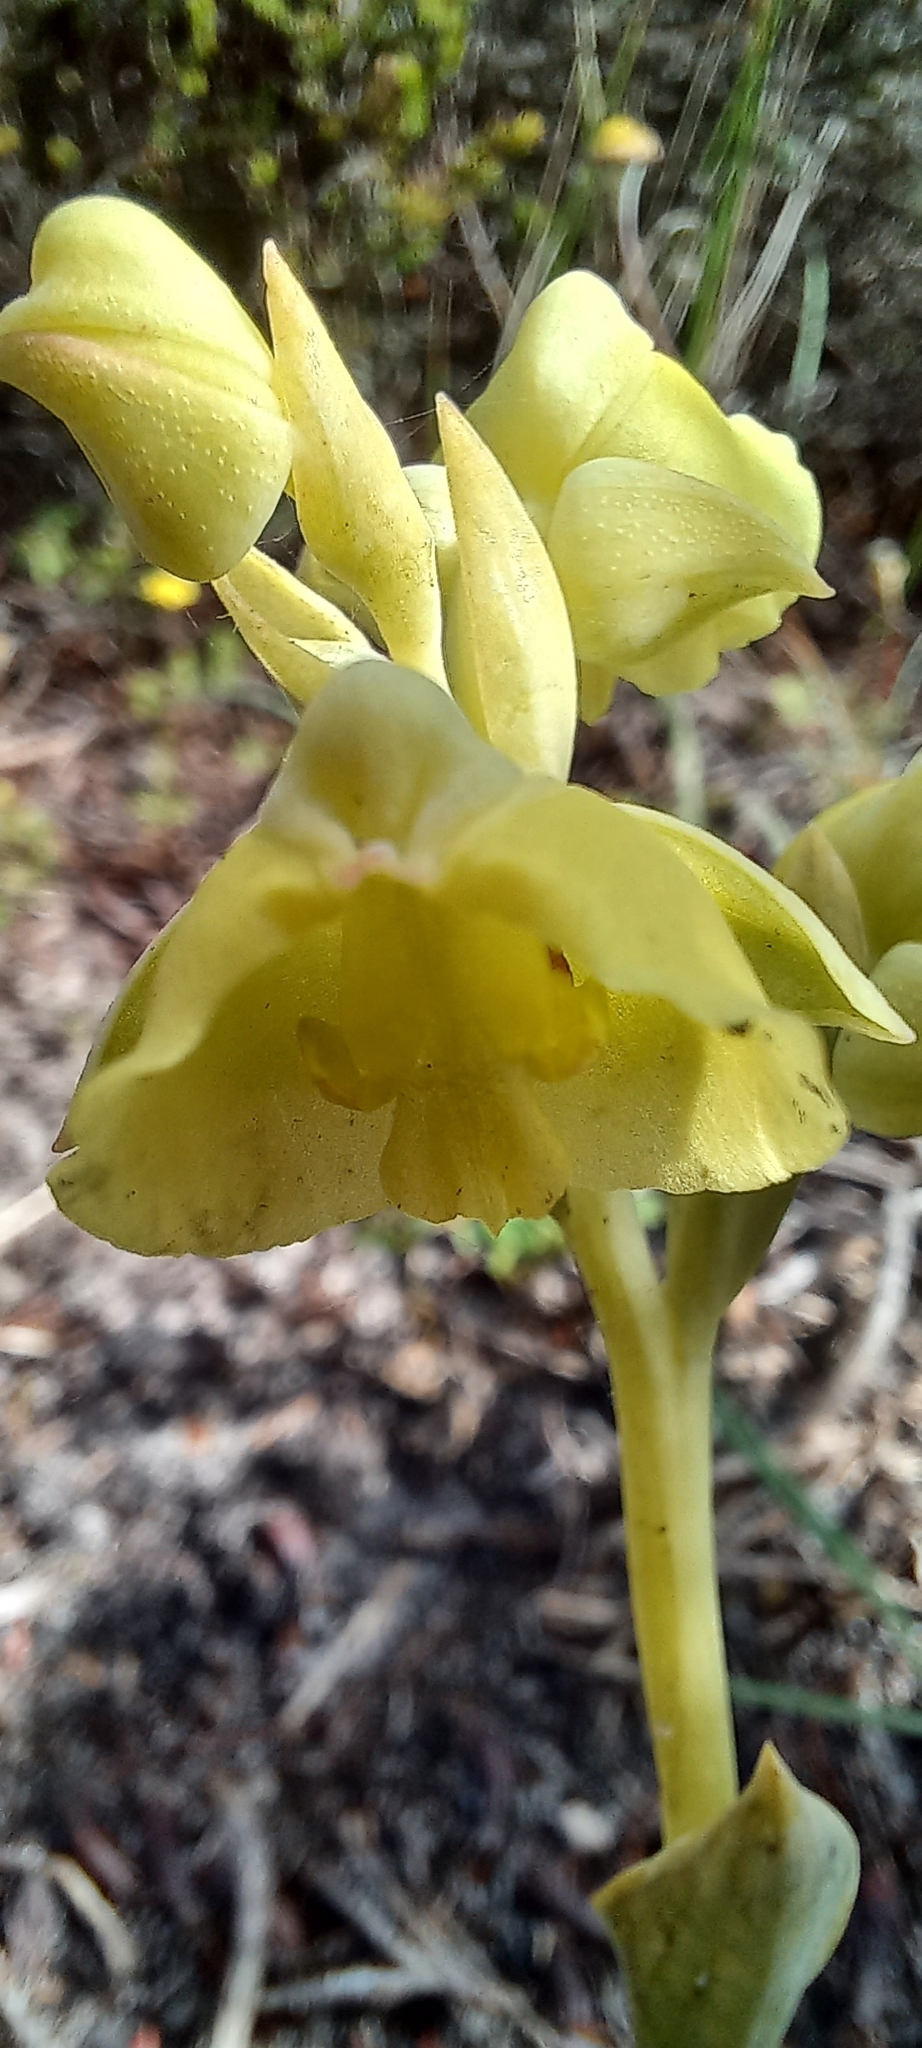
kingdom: Plantae
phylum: Tracheophyta
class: Liliopsida
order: Asparagales
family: Orchidaceae
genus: Pterygodium
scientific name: Pterygodium catholicum
